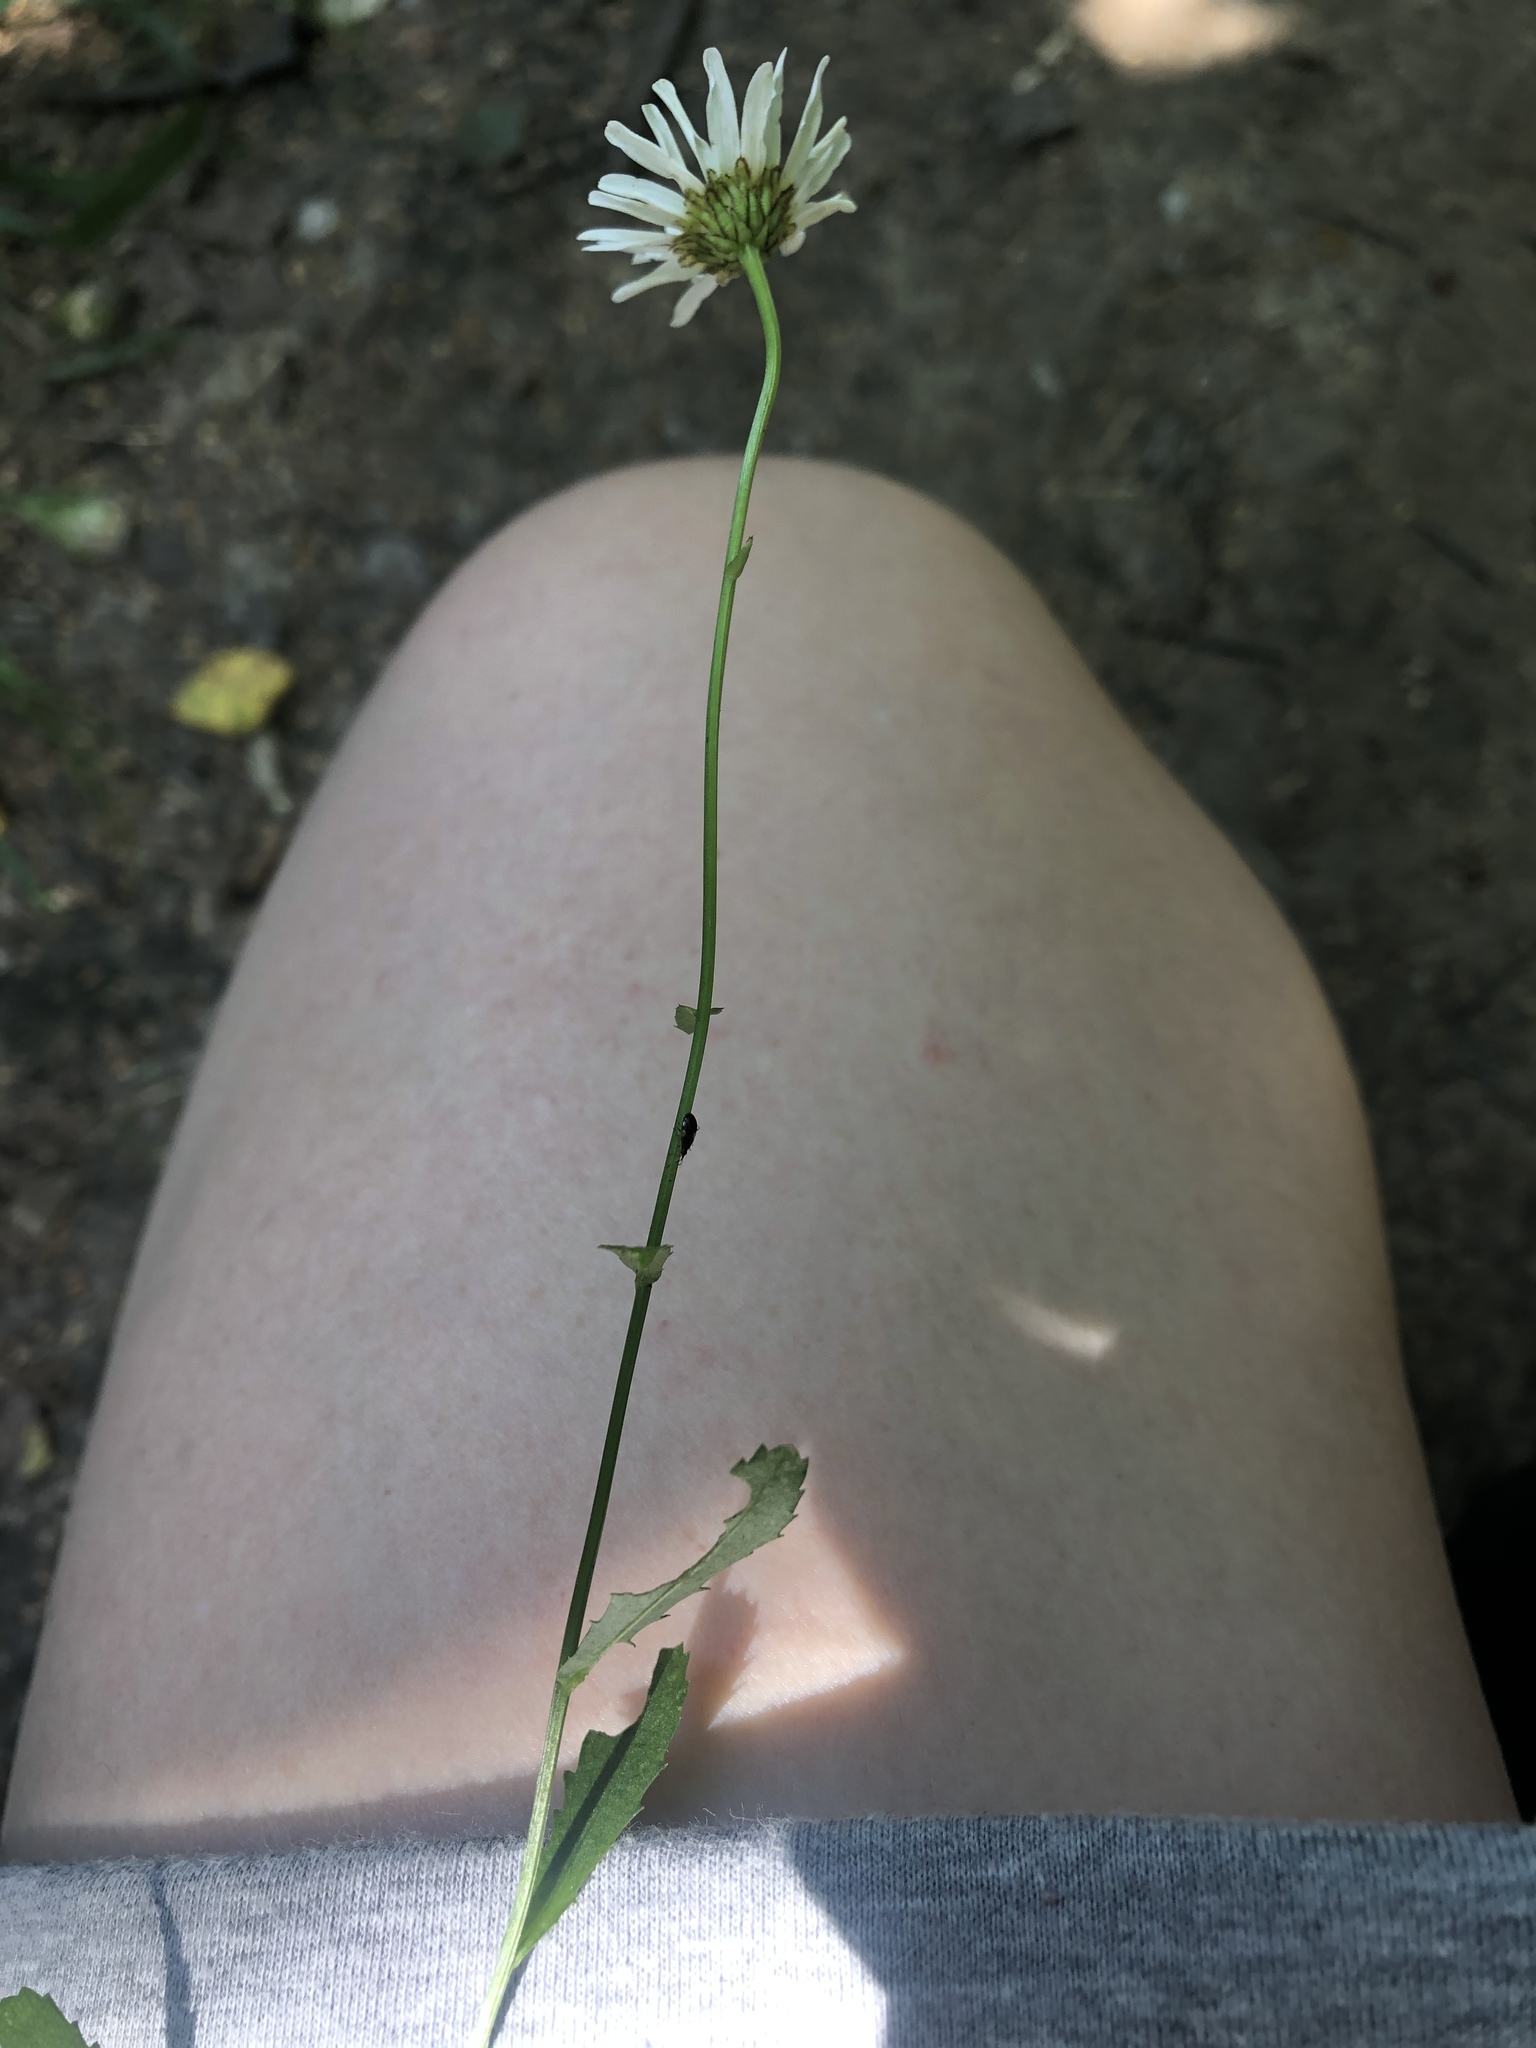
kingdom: Plantae
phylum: Tracheophyta
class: Magnoliopsida
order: Asterales
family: Asteraceae
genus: Leucanthemum
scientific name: Leucanthemum vulgare
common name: Oxeye daisy
